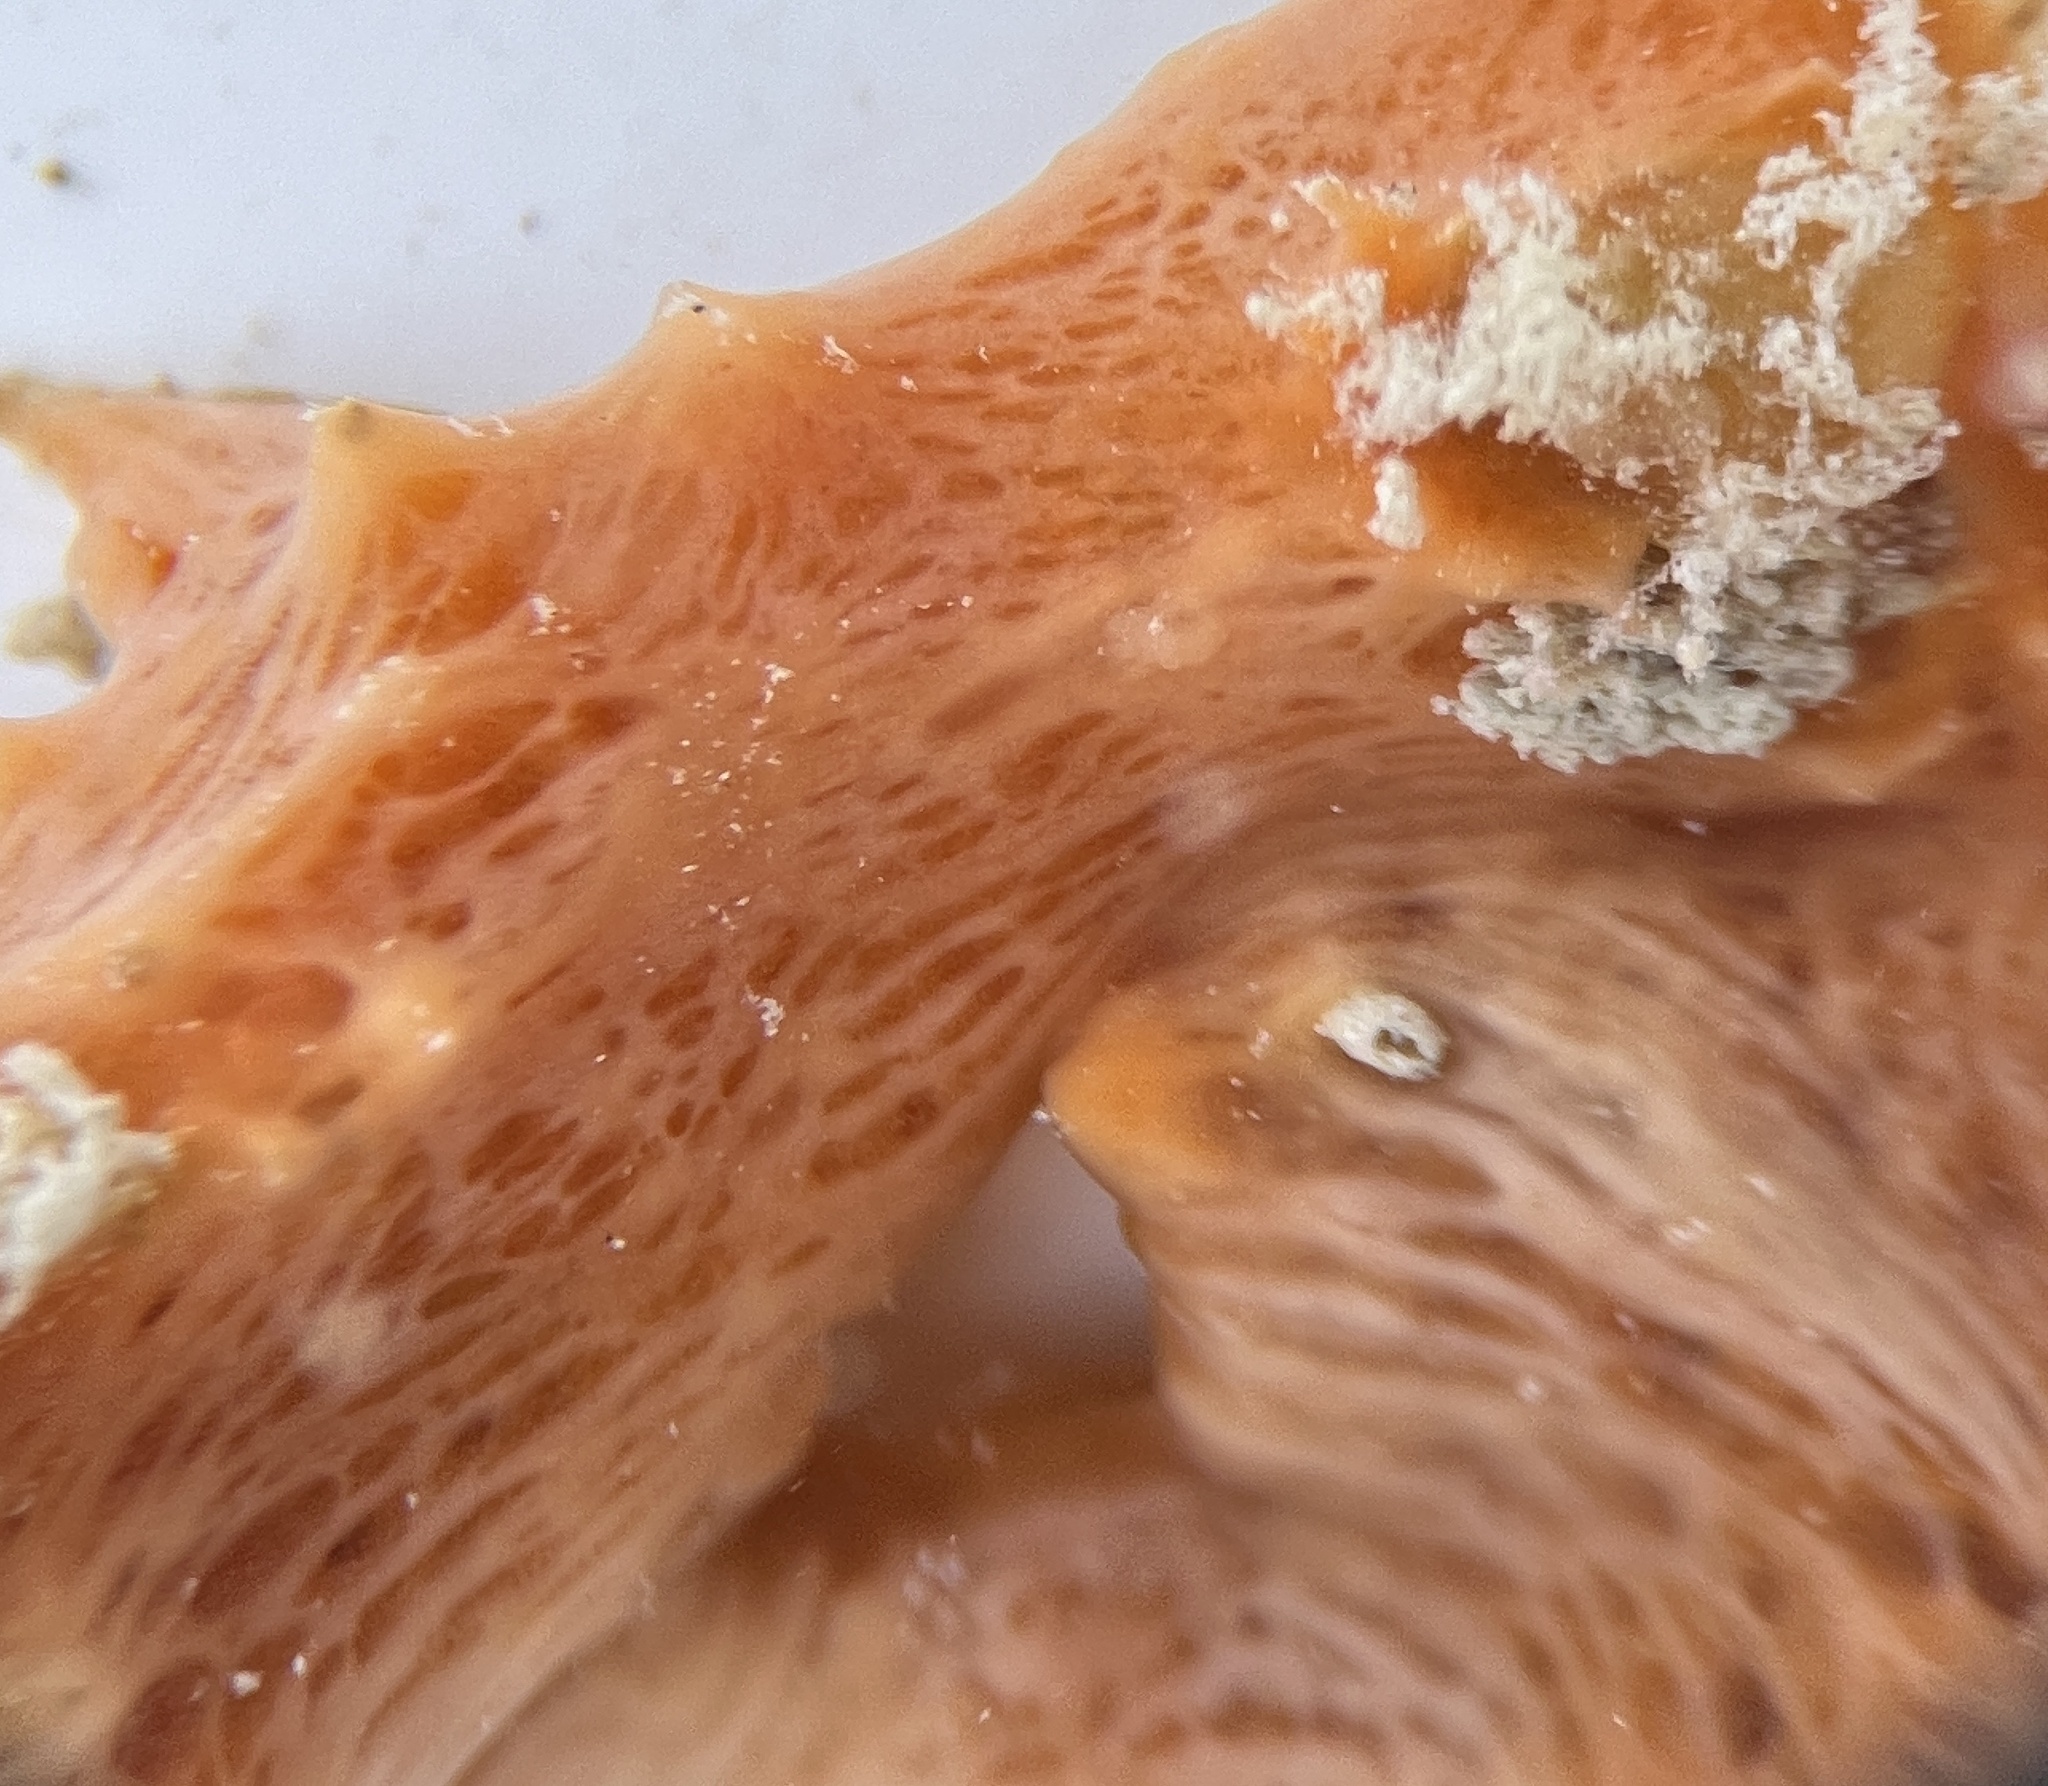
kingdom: Animalia
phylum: Porifera
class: Demospongiae
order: Scopalinida
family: Scopalinidae
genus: Scopalina
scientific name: Scopalina ruetzleri
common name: Orange lumpy encrusting sponge
